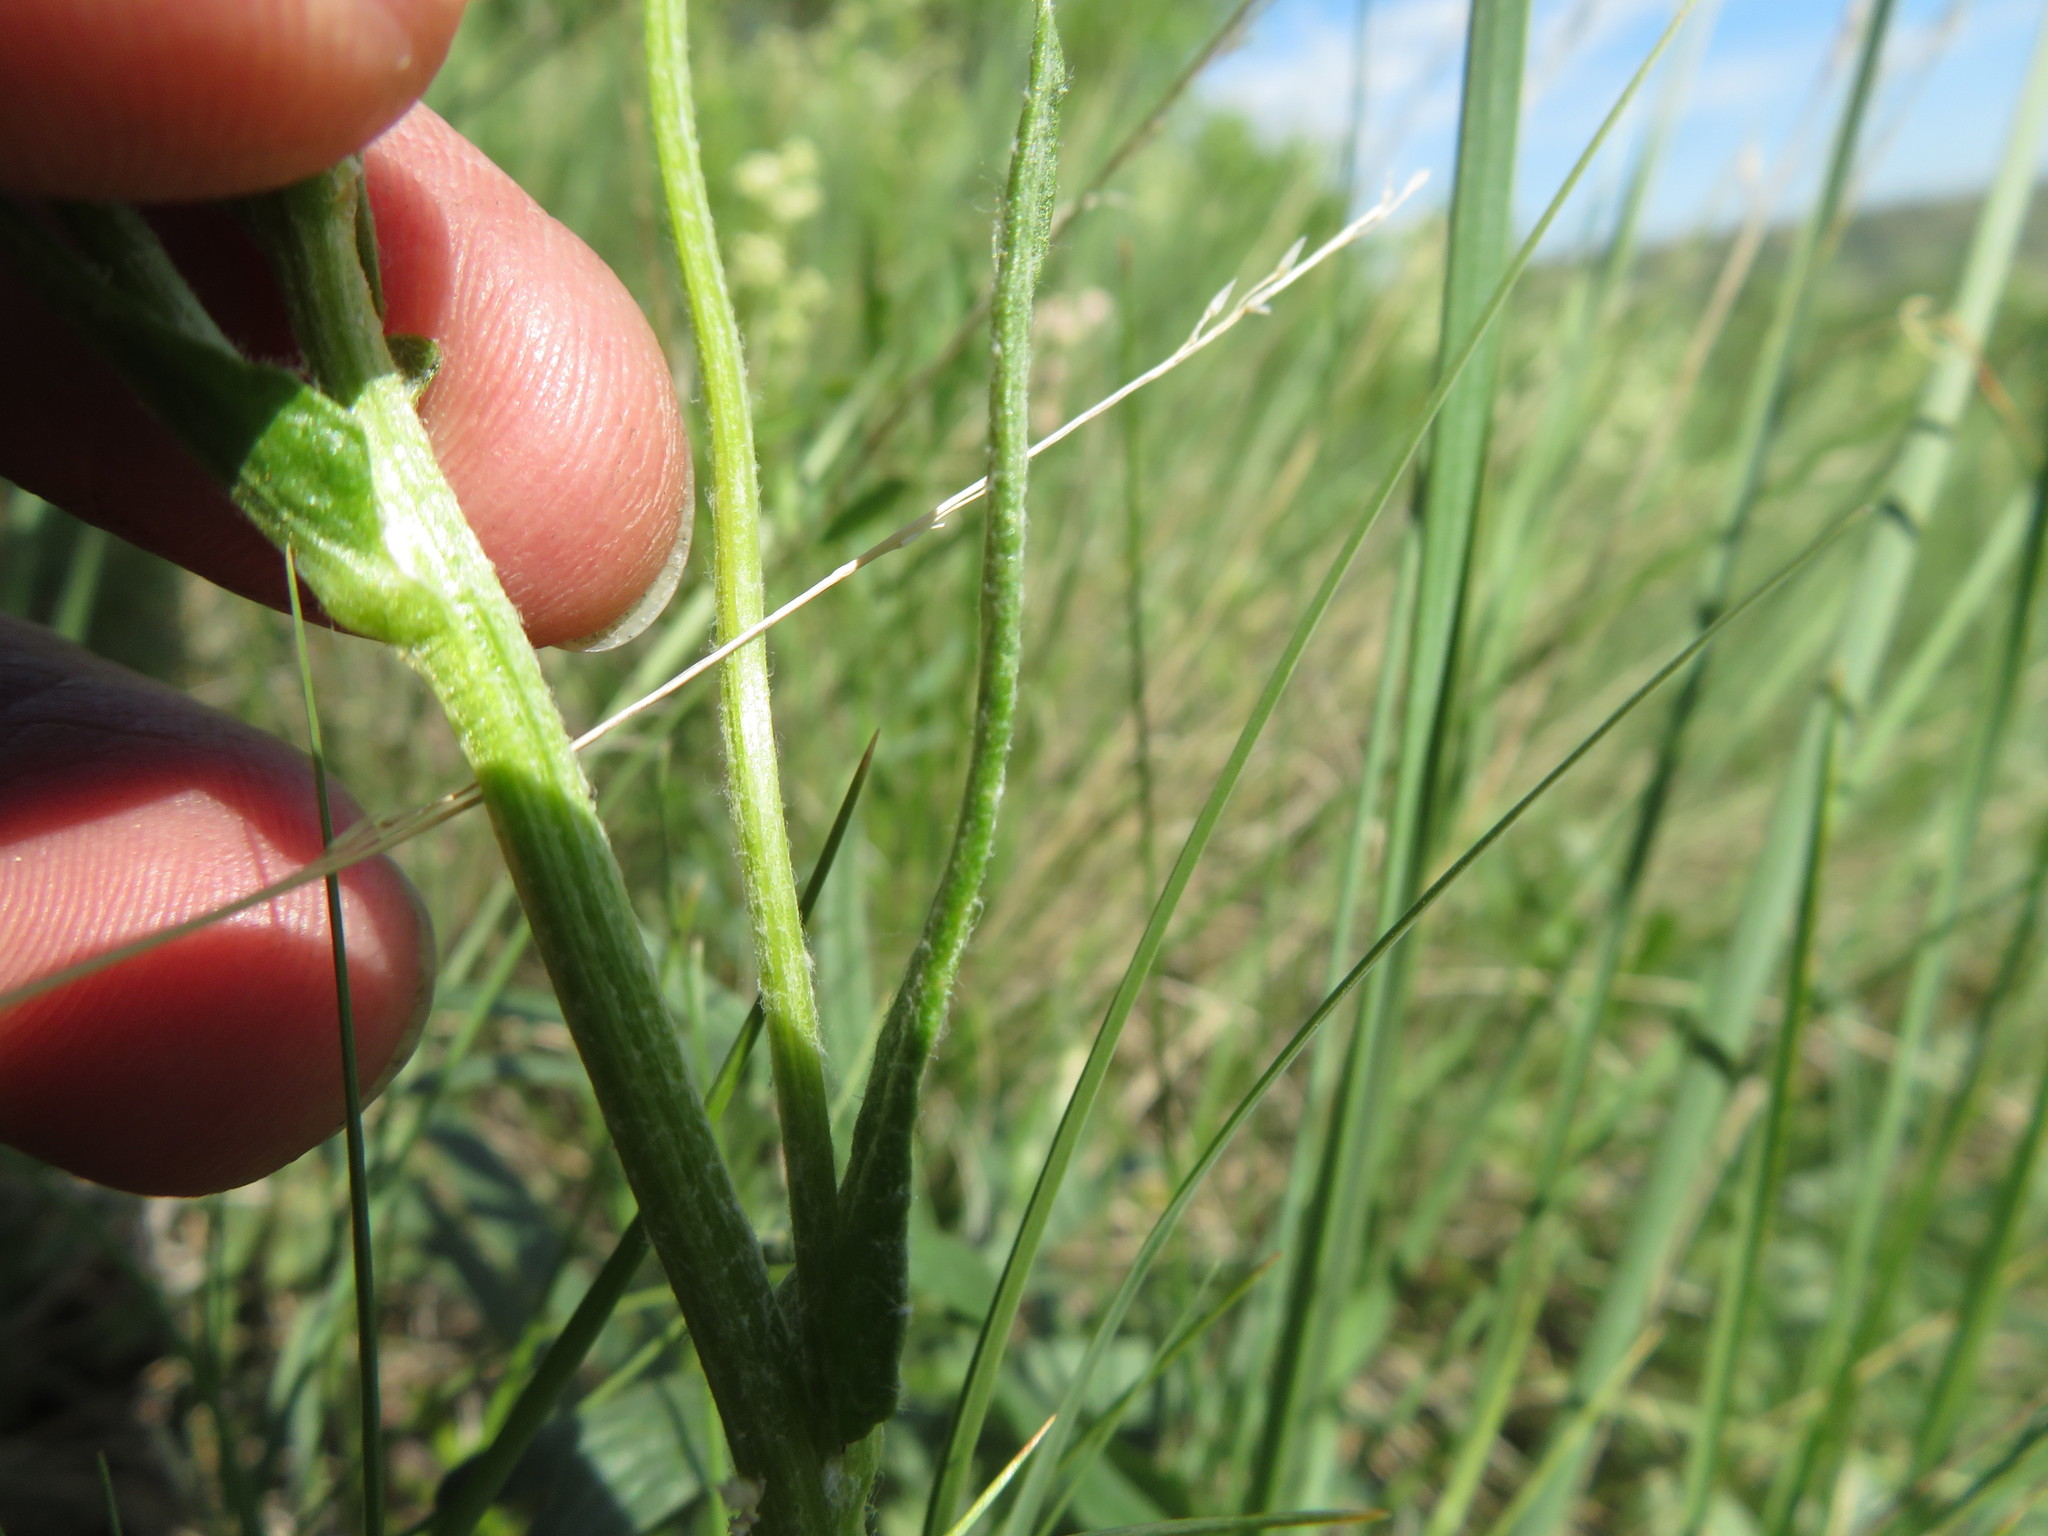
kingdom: Plantae
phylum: Tracheophyta
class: Magnoliopsida
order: Asterales
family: Asteraceae
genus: Senecio
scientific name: Senecio integerrimus
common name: Gaugeplant
